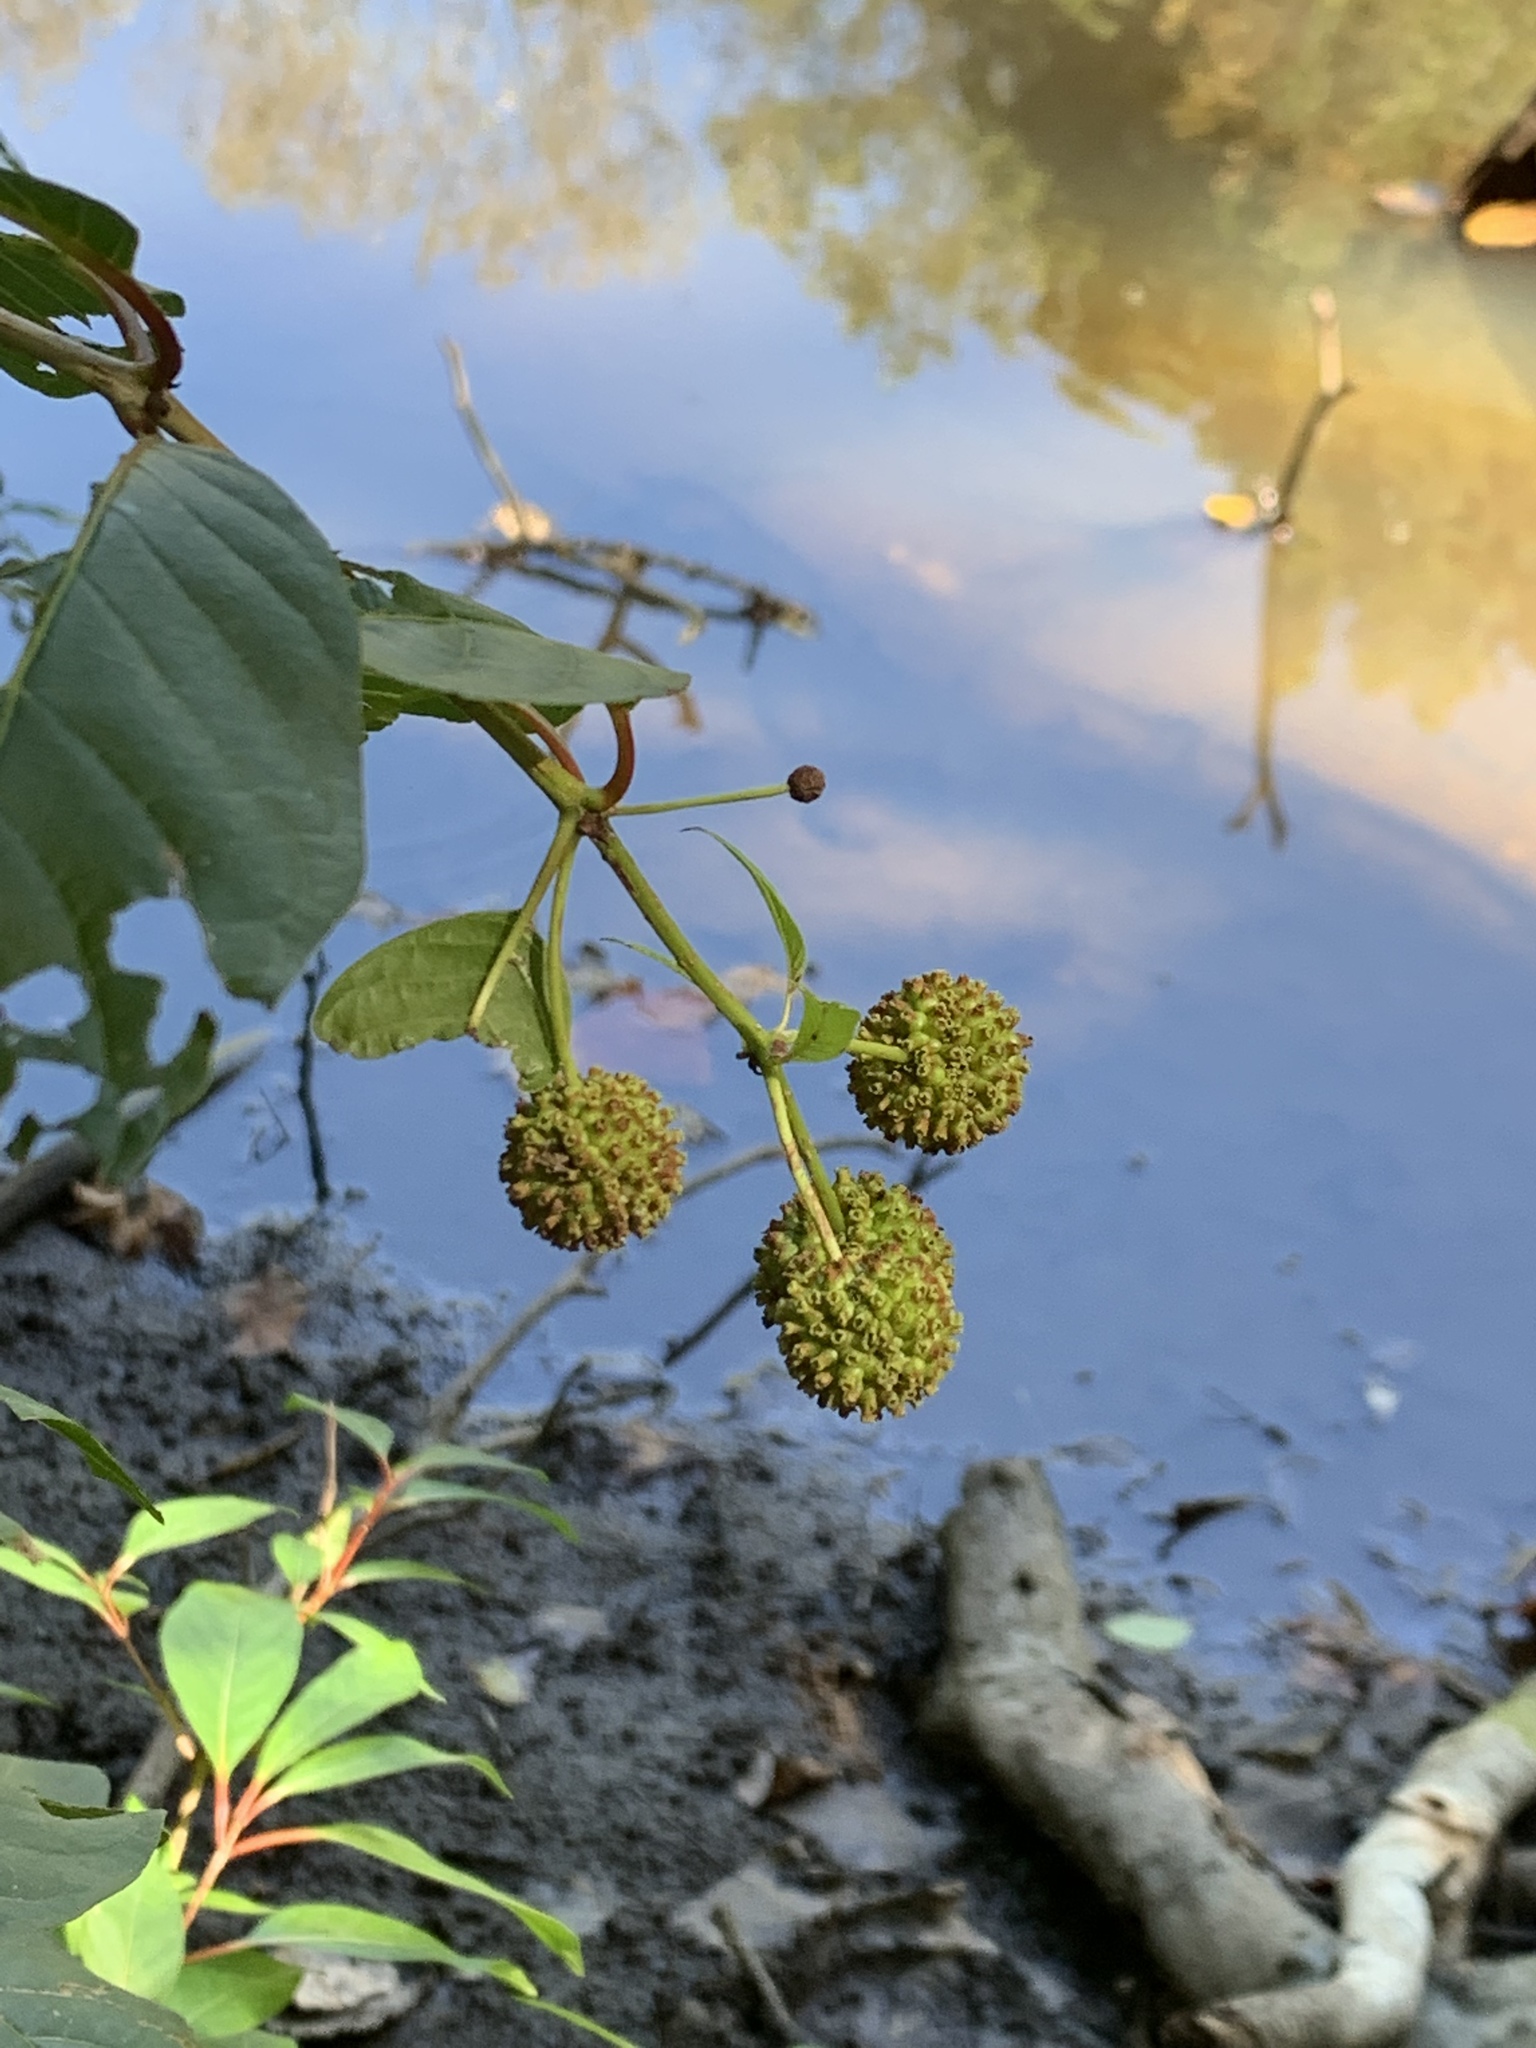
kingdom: Plantae
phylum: Tracheophyta
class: Magnoliopsida
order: Gentianales
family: Rubiaceae
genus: Cephalanthus
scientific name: Cephalanthus occidentalis
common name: Button-willow
